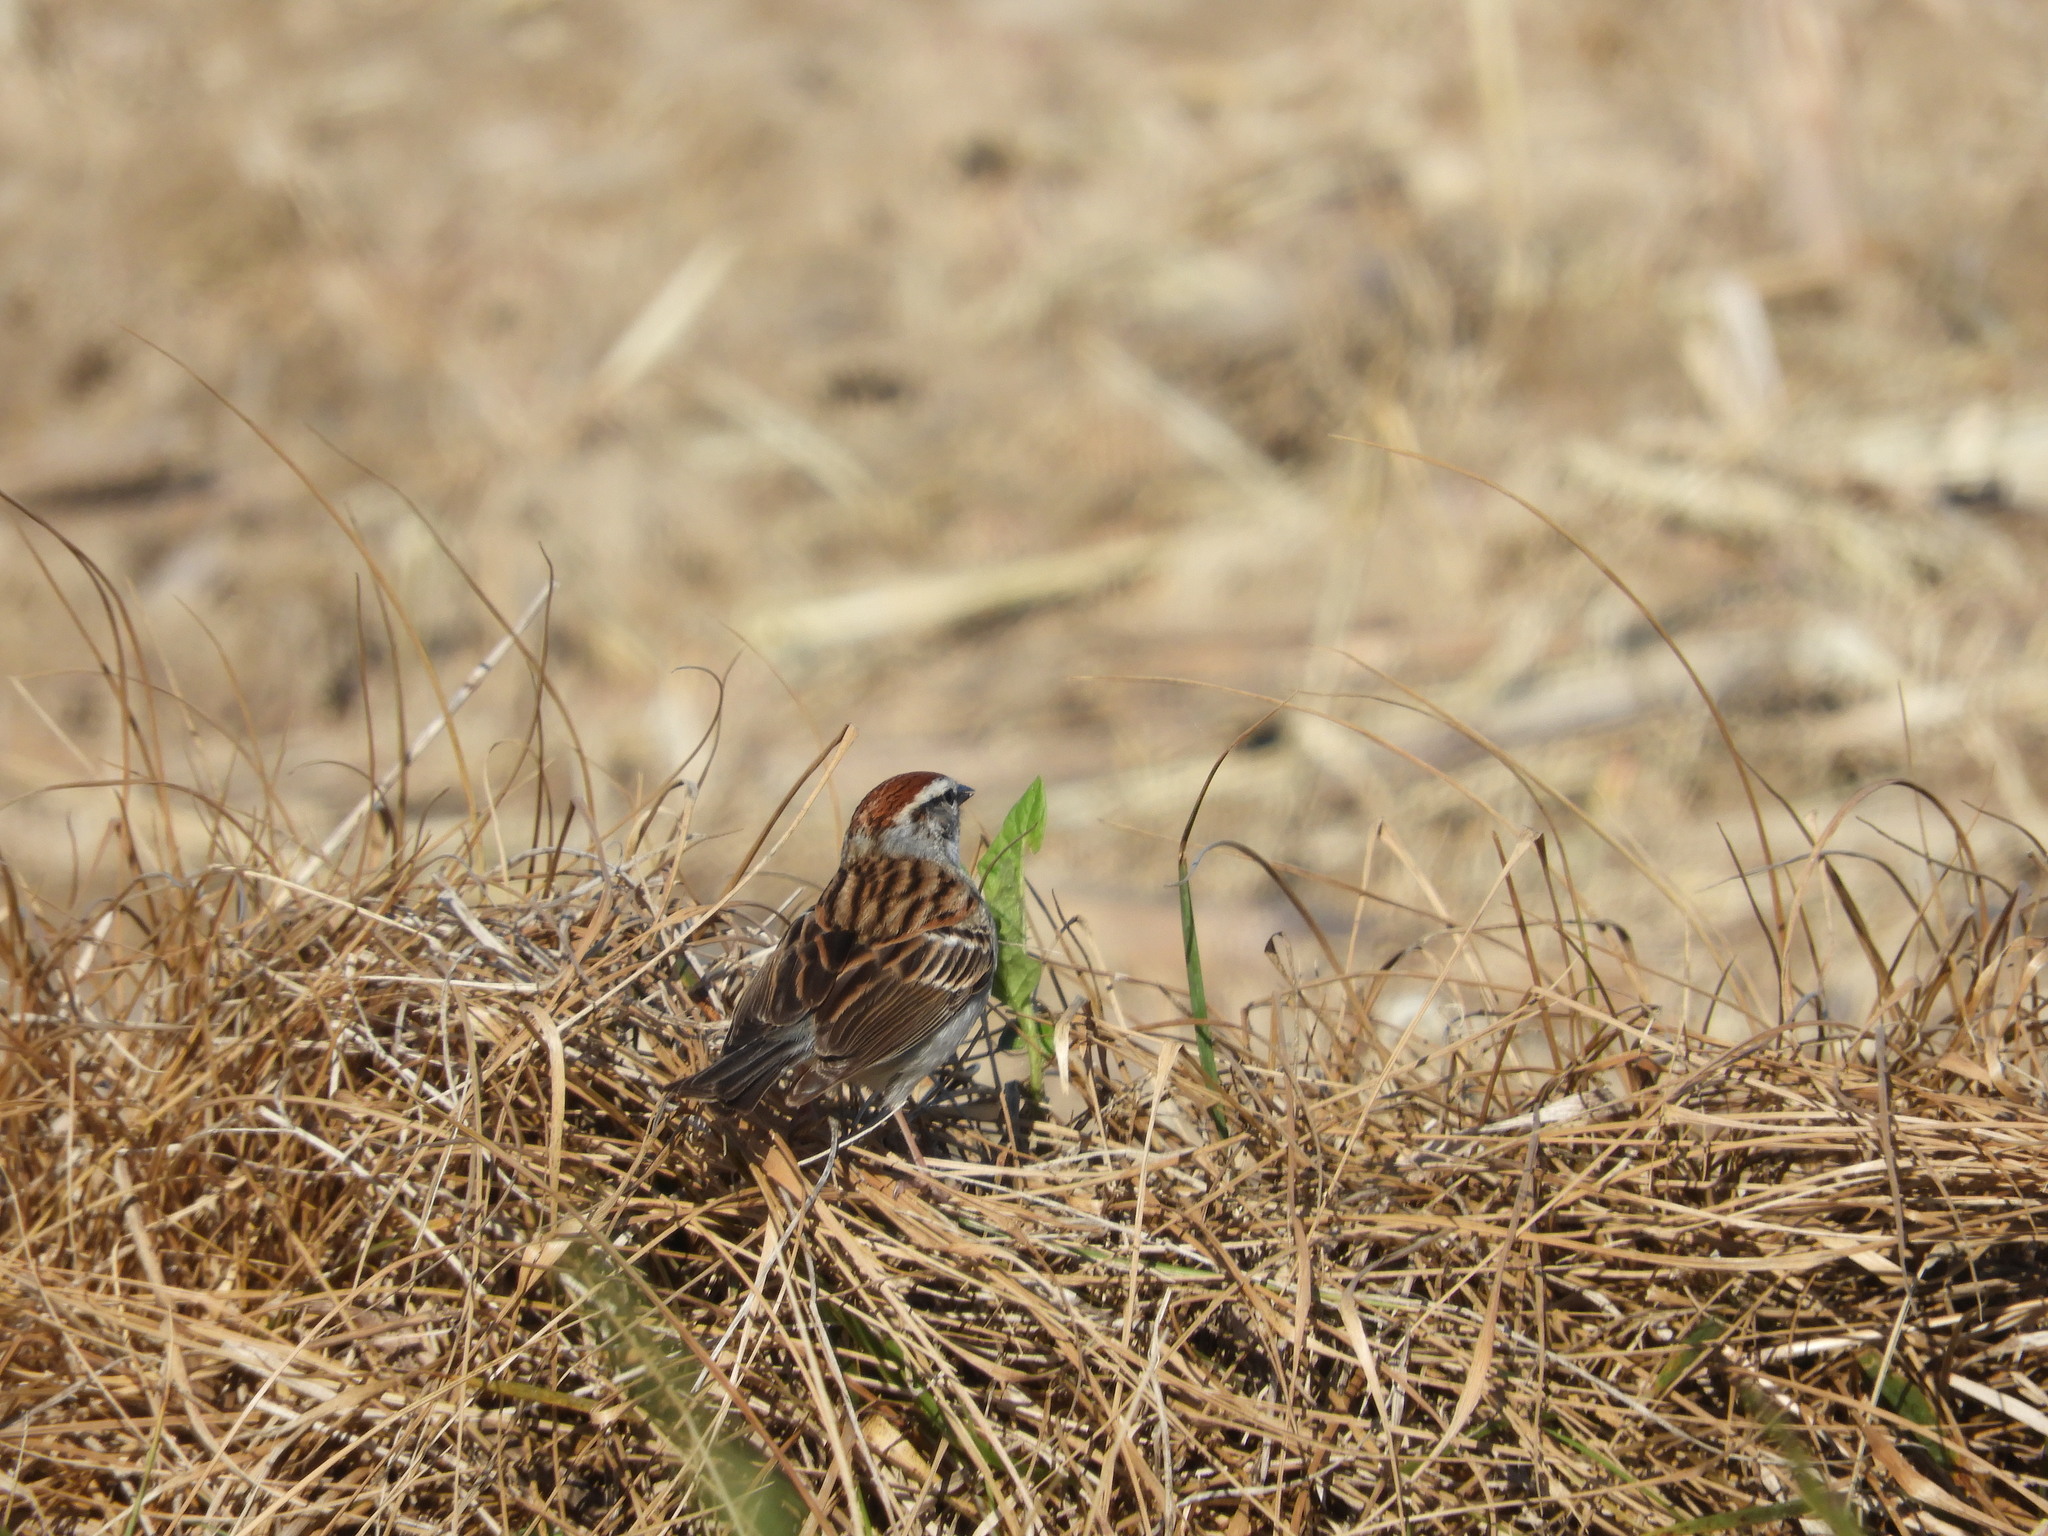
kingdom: Animalia
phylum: Chordata
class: Aves
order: Passeriformes
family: Passerellidae
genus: Spizella
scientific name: Spizella passerina
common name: Chipping sparrow
